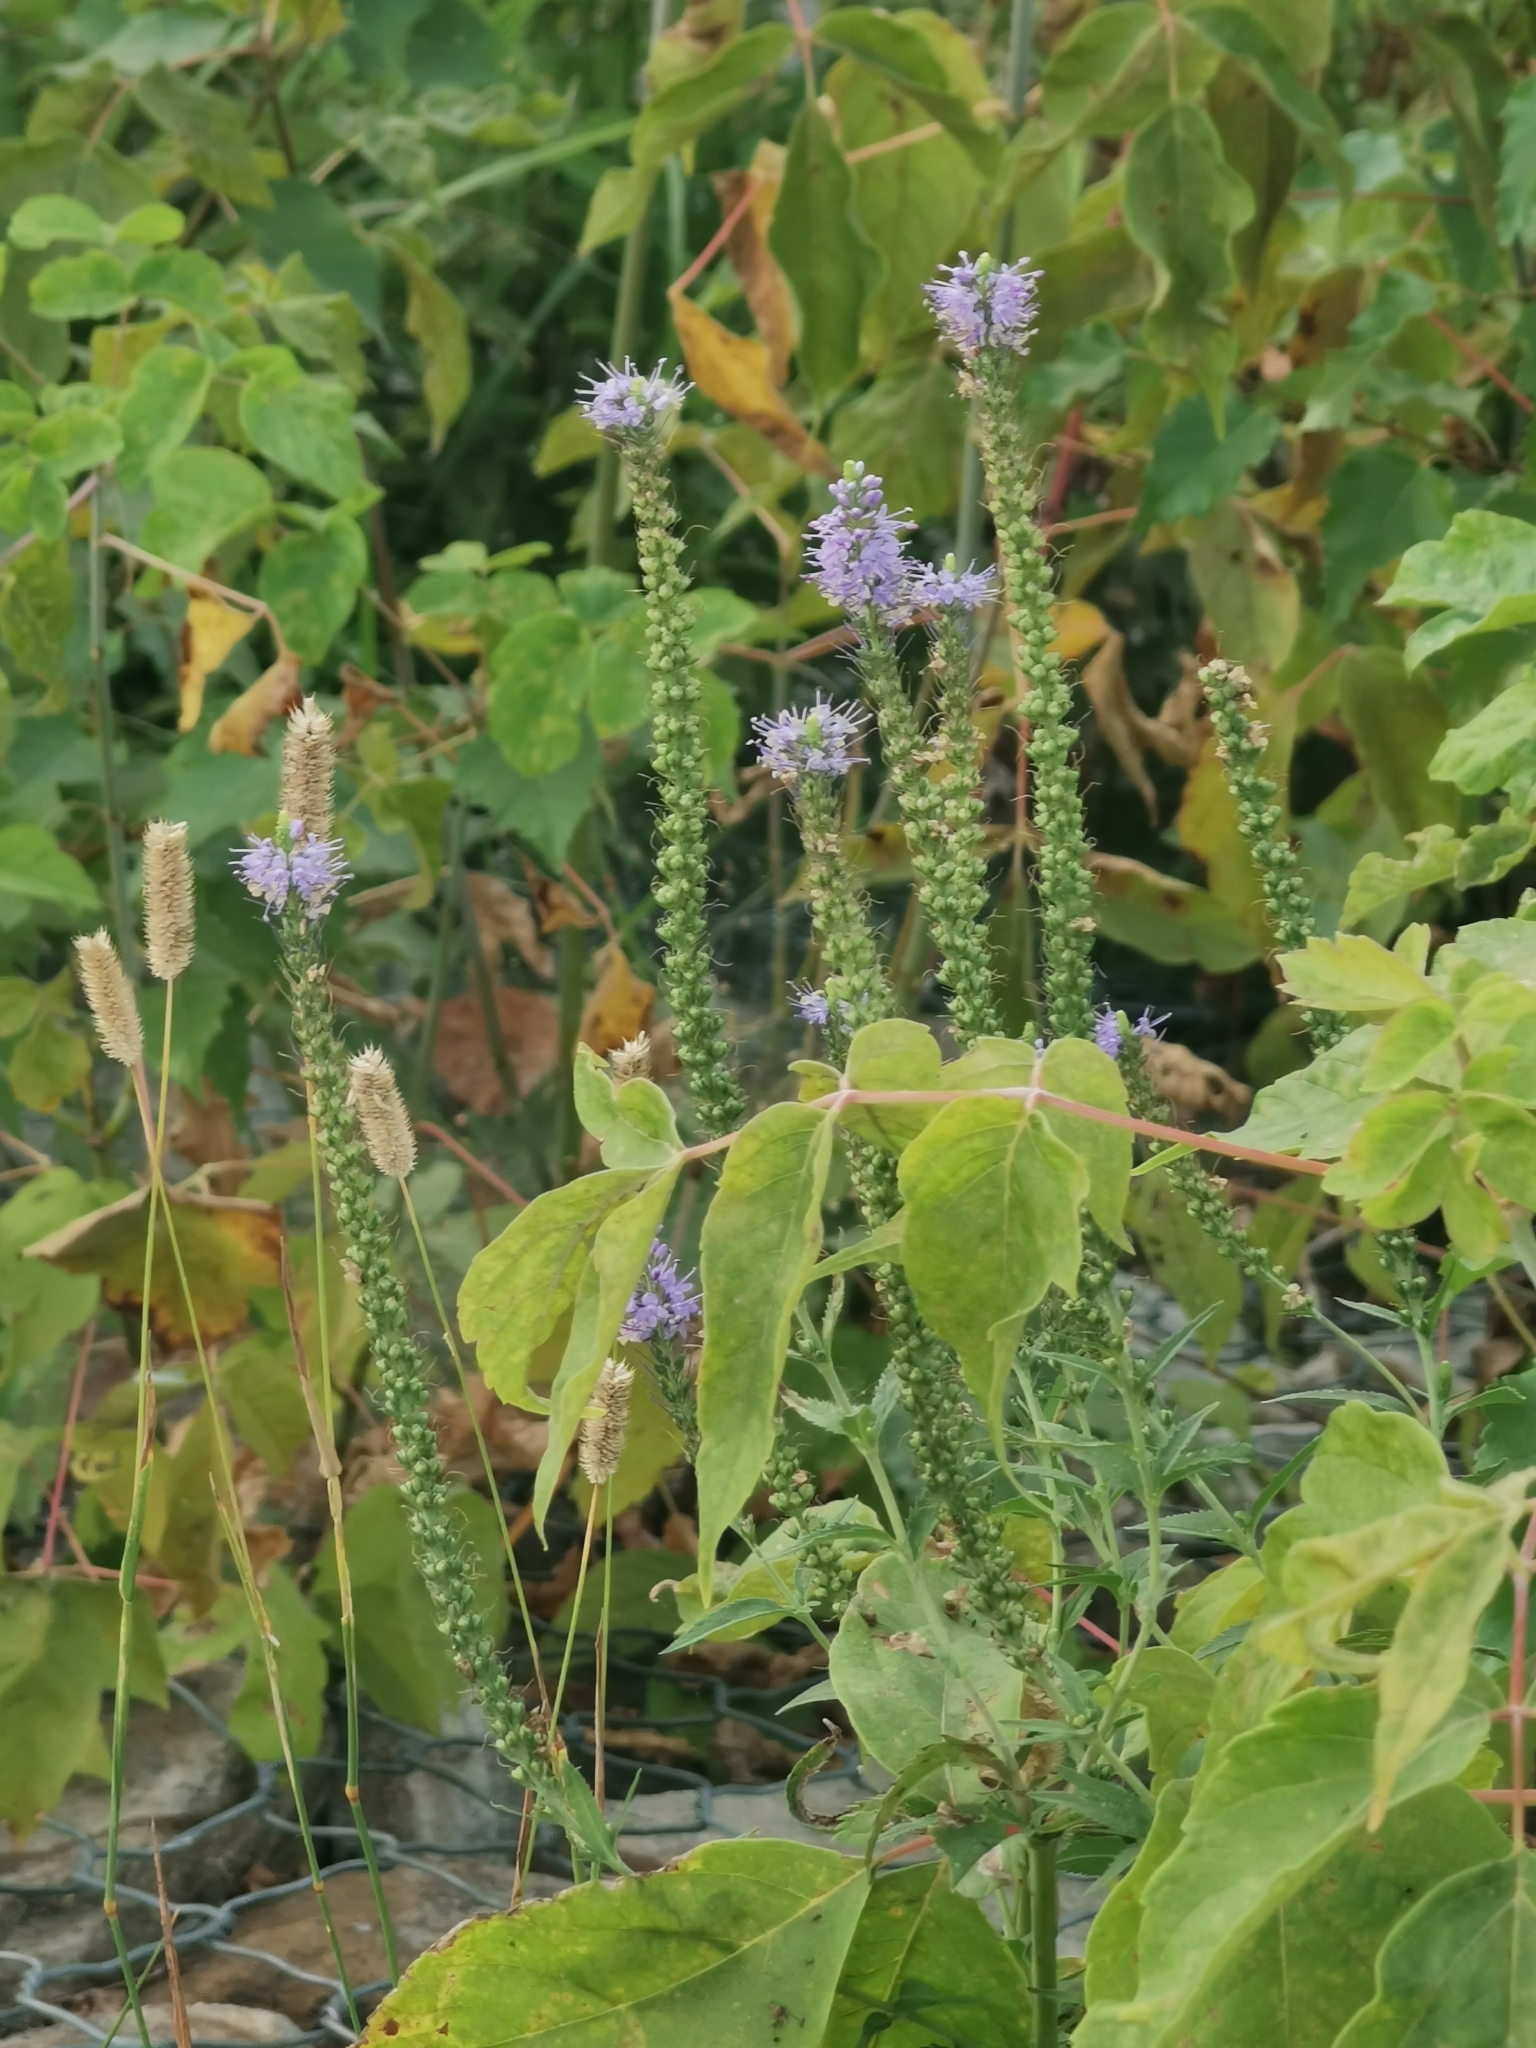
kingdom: Plantae
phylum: Tracheophyta
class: Magnoliopsida
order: Lamiales
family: Plantaginaceae
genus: Veronica
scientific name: Veronica longifolia
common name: Garden speedwell
